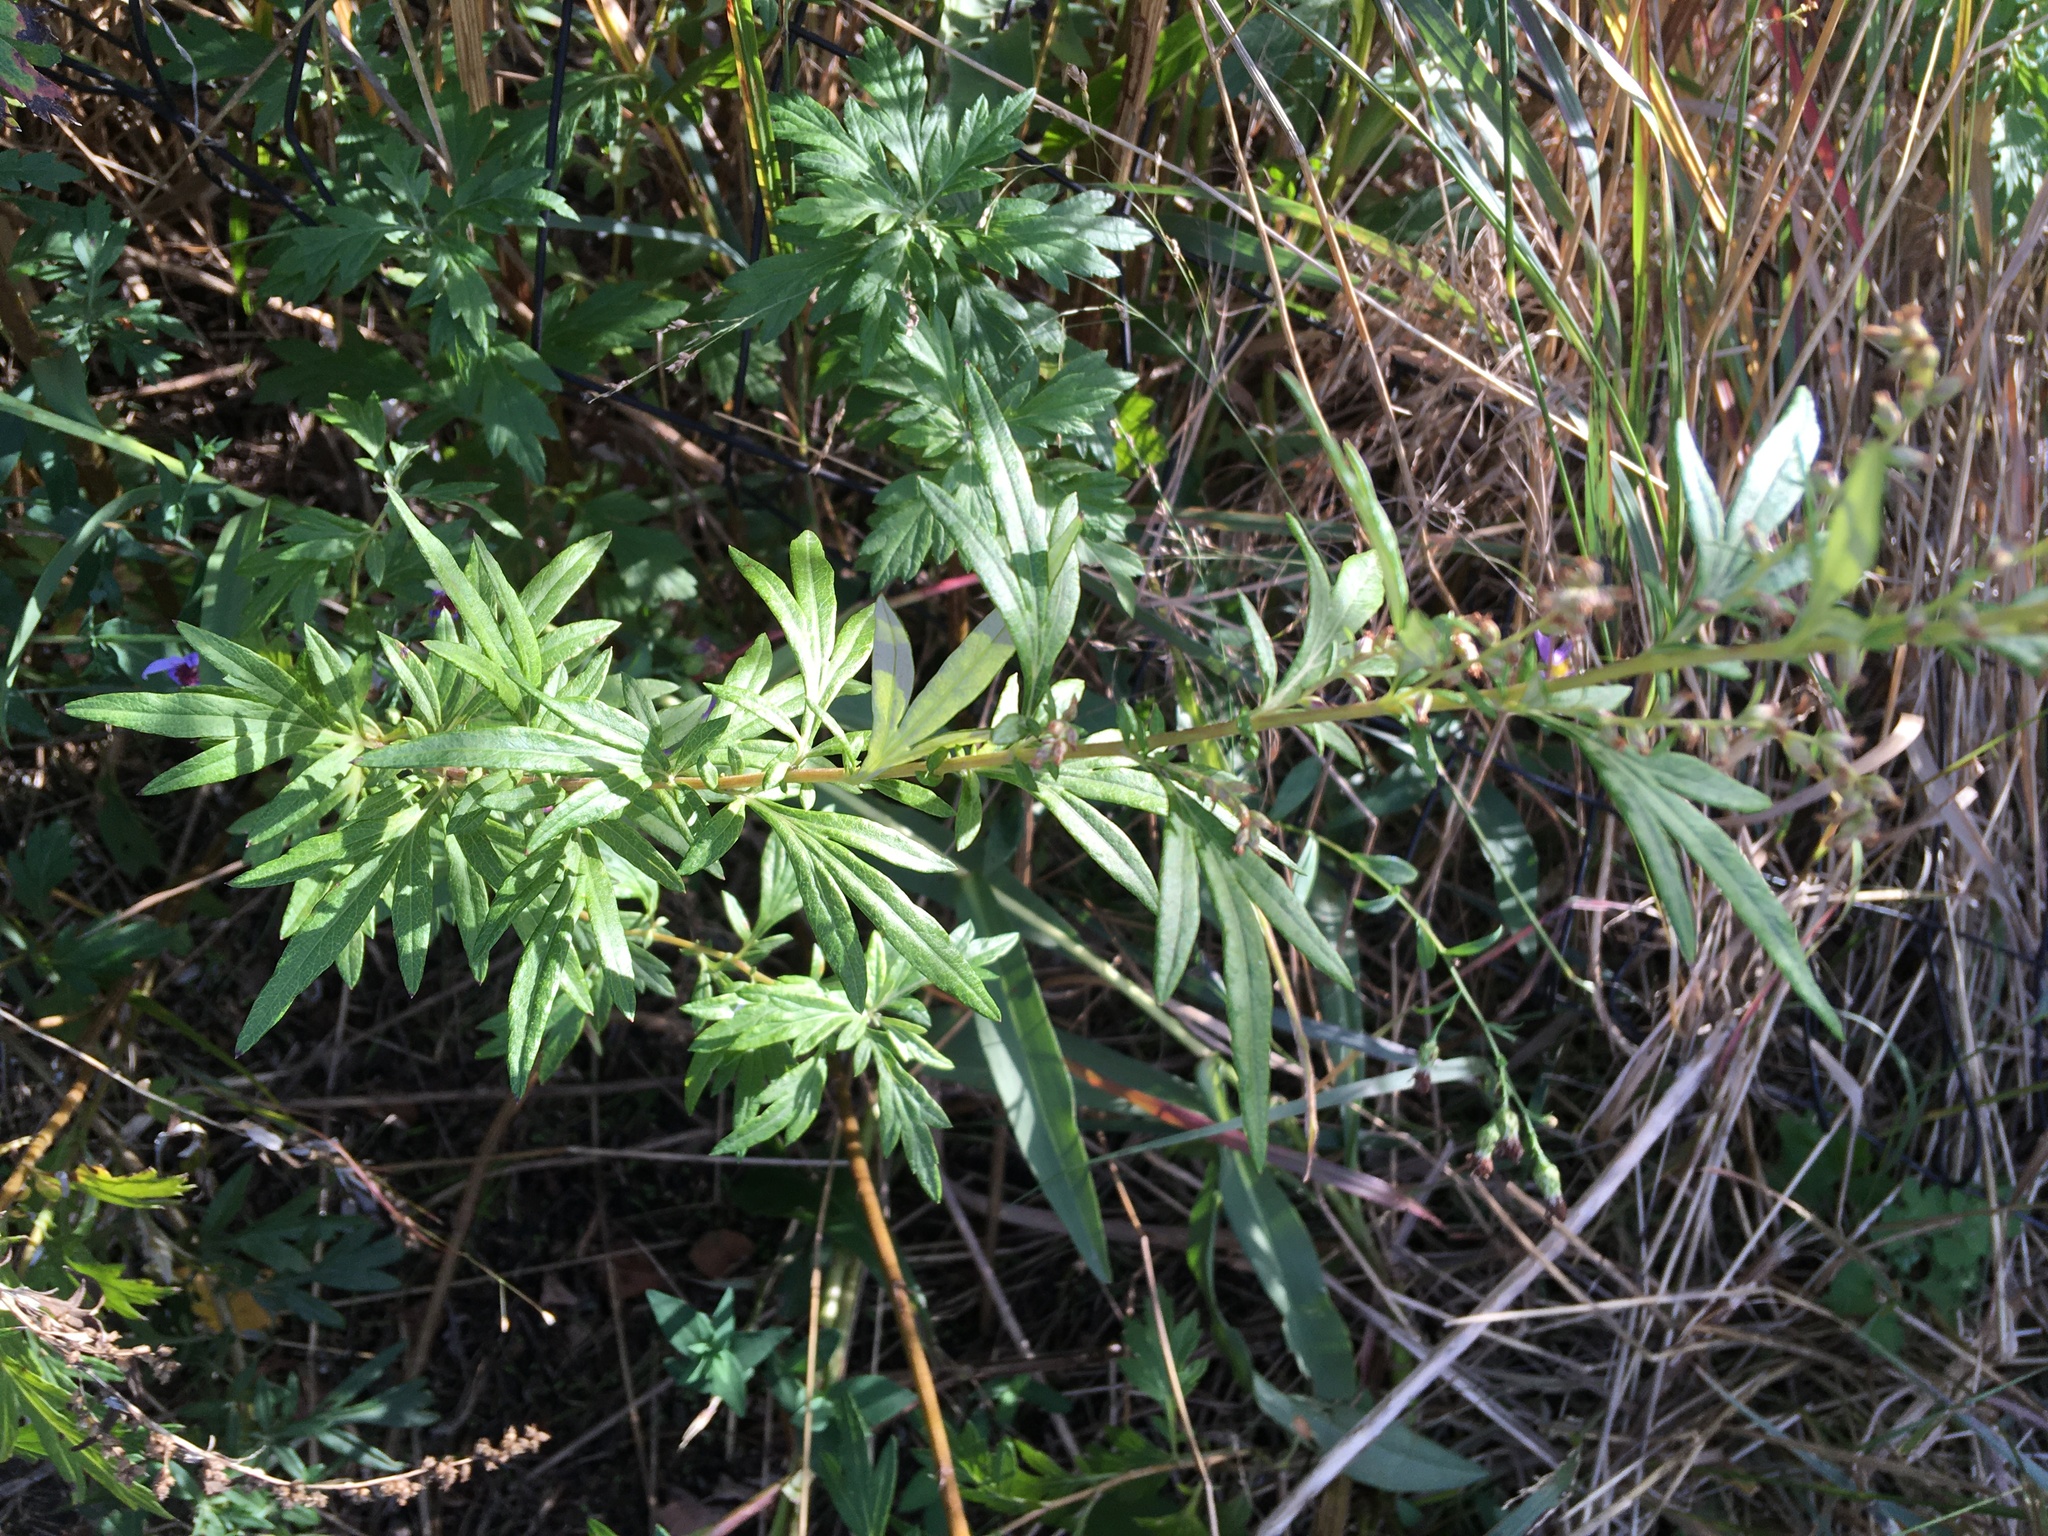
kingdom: Plantae
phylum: Tracheophyta
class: Magnoliopsida
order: Asterales
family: Asteraceae
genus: Artemisia
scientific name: Artemisia vulgaris
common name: Mugwort
